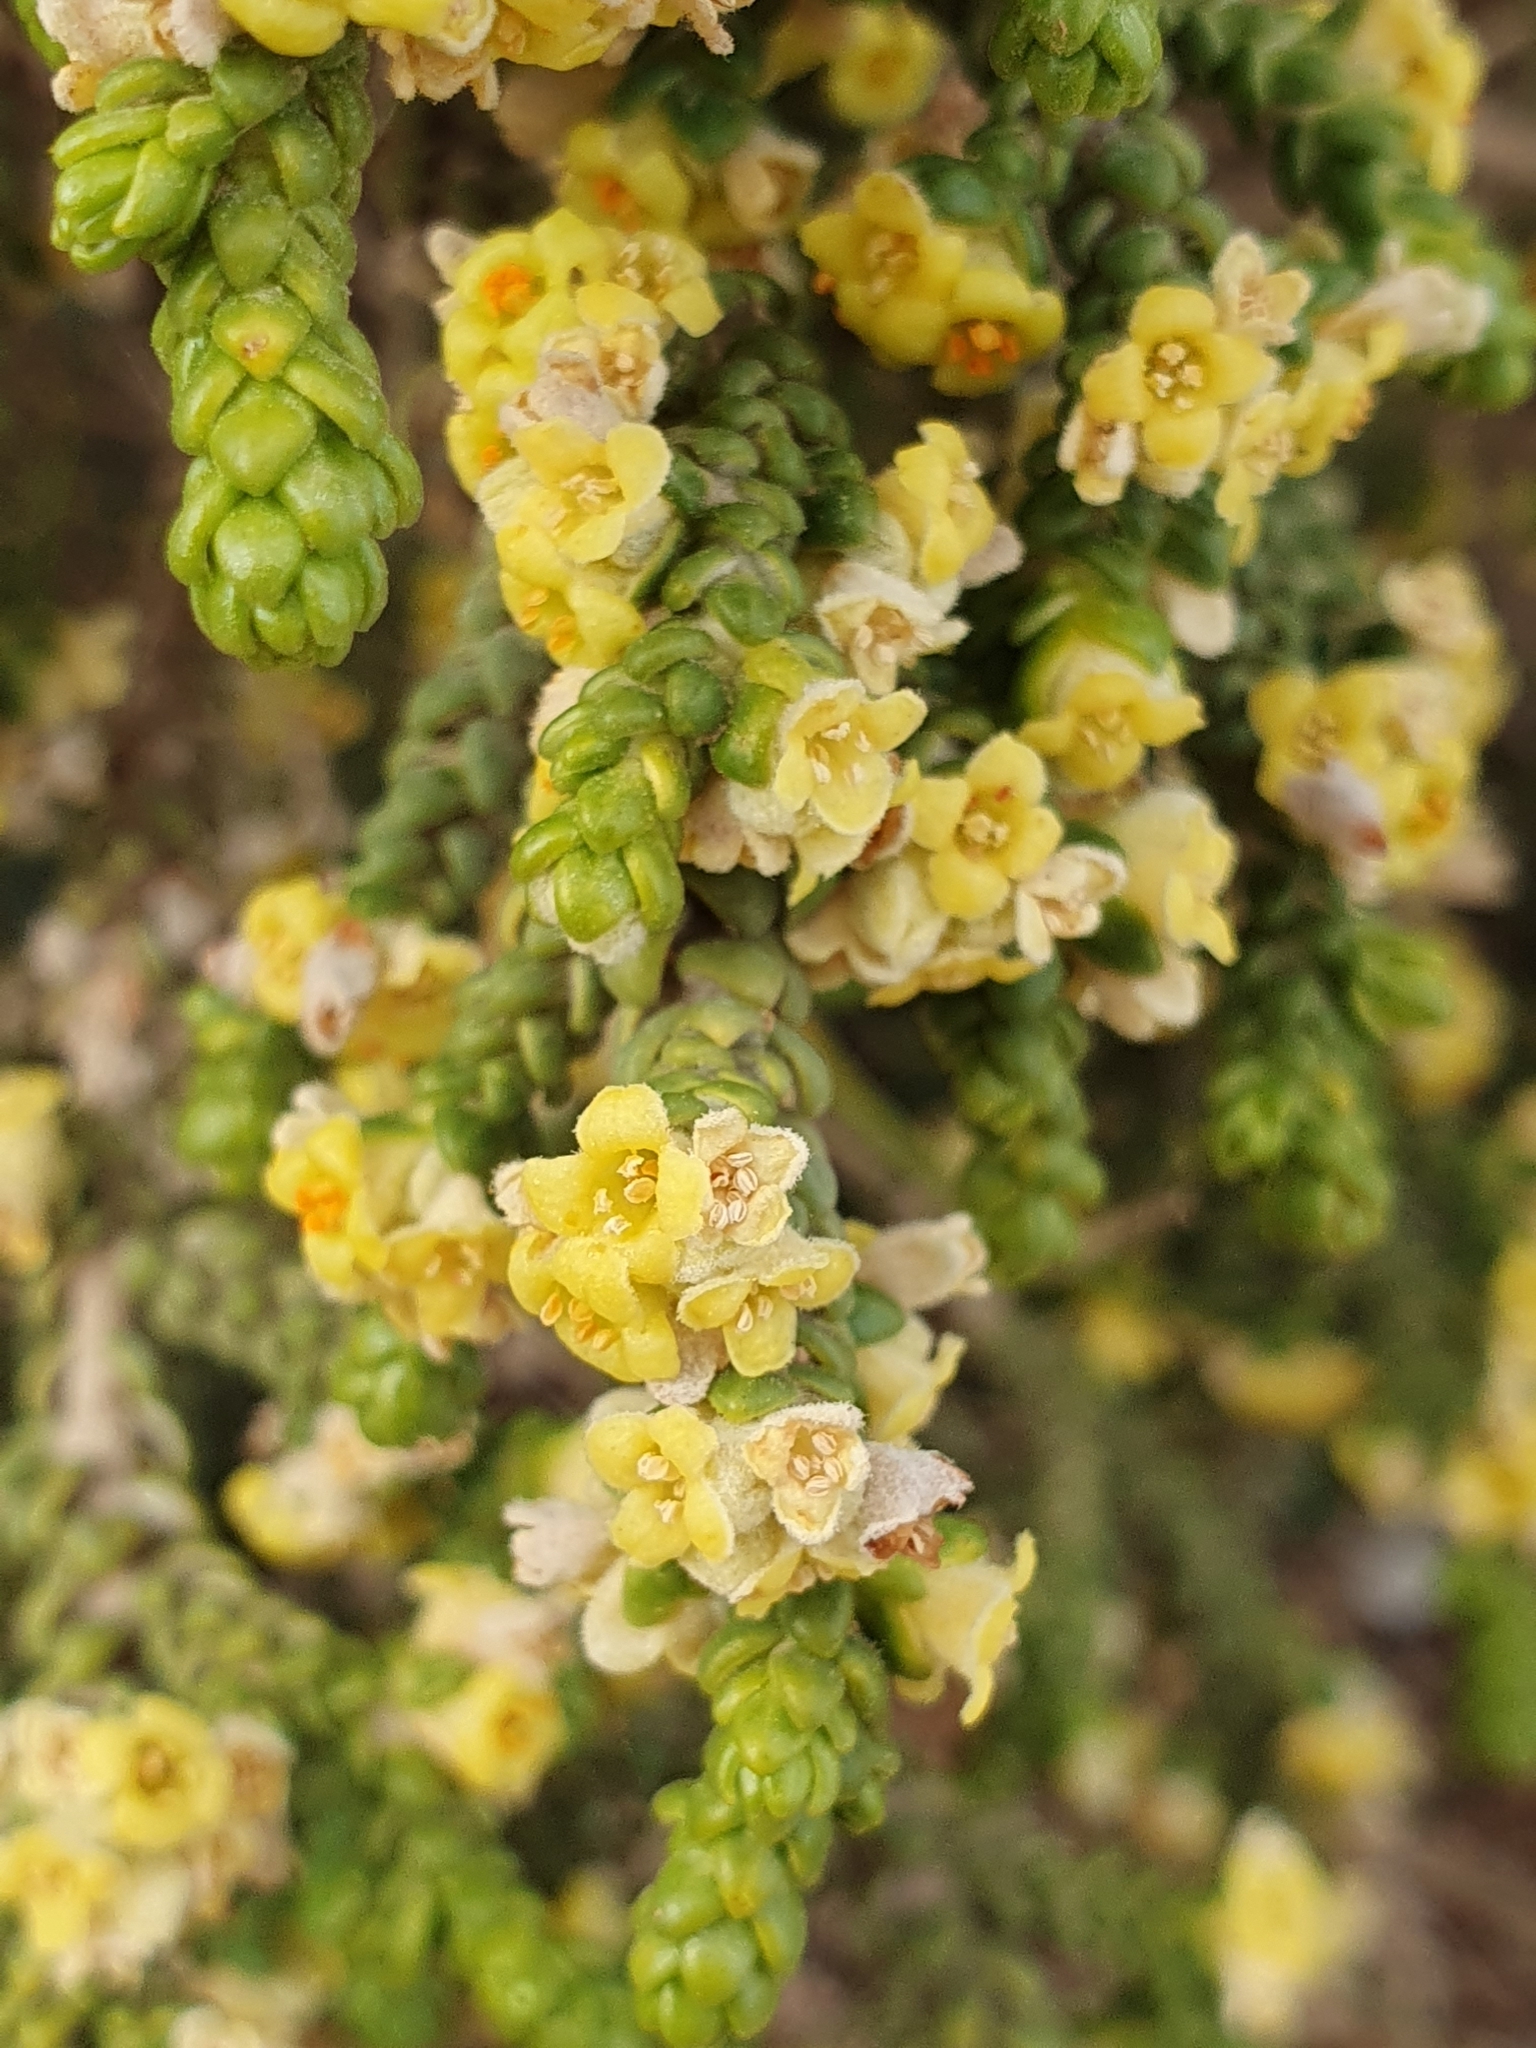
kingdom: Plantae
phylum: Tracheophyta
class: Magnoliopsida
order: Malvales
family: Thymelaeaceae
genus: Thymelaea
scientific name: Thymelaea hirsuta
